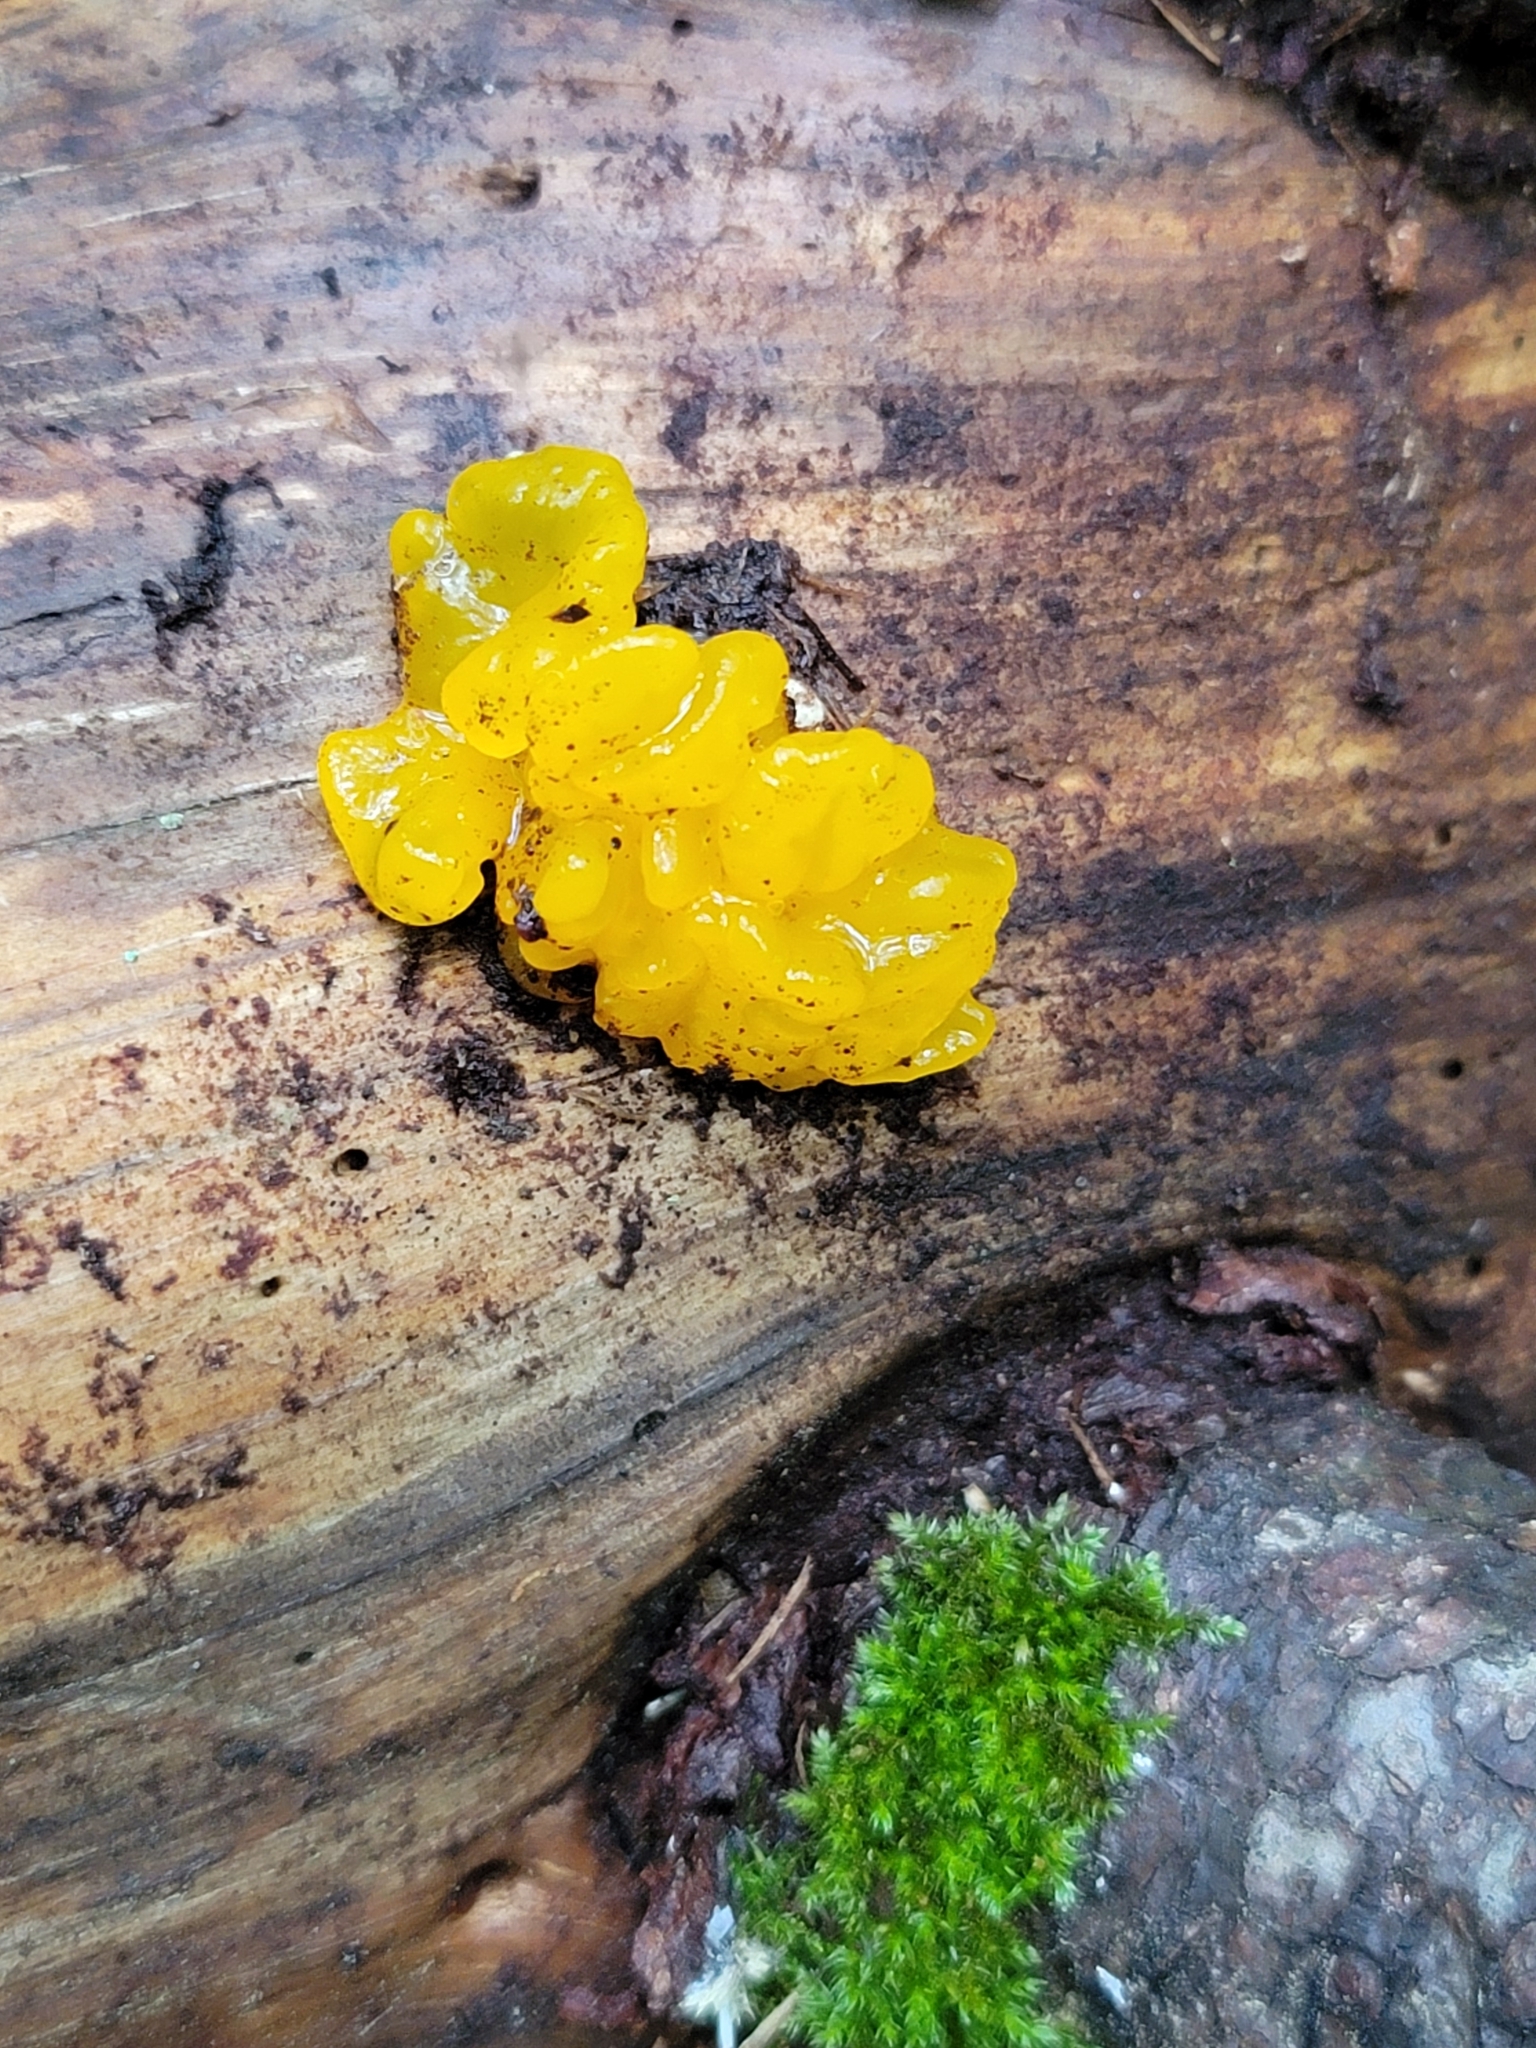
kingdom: Fungi
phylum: Basidiomycota
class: Tremellomycetes
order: Tremellales
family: Tremellaceae
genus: Tremella
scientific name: Tremella mesenterica
